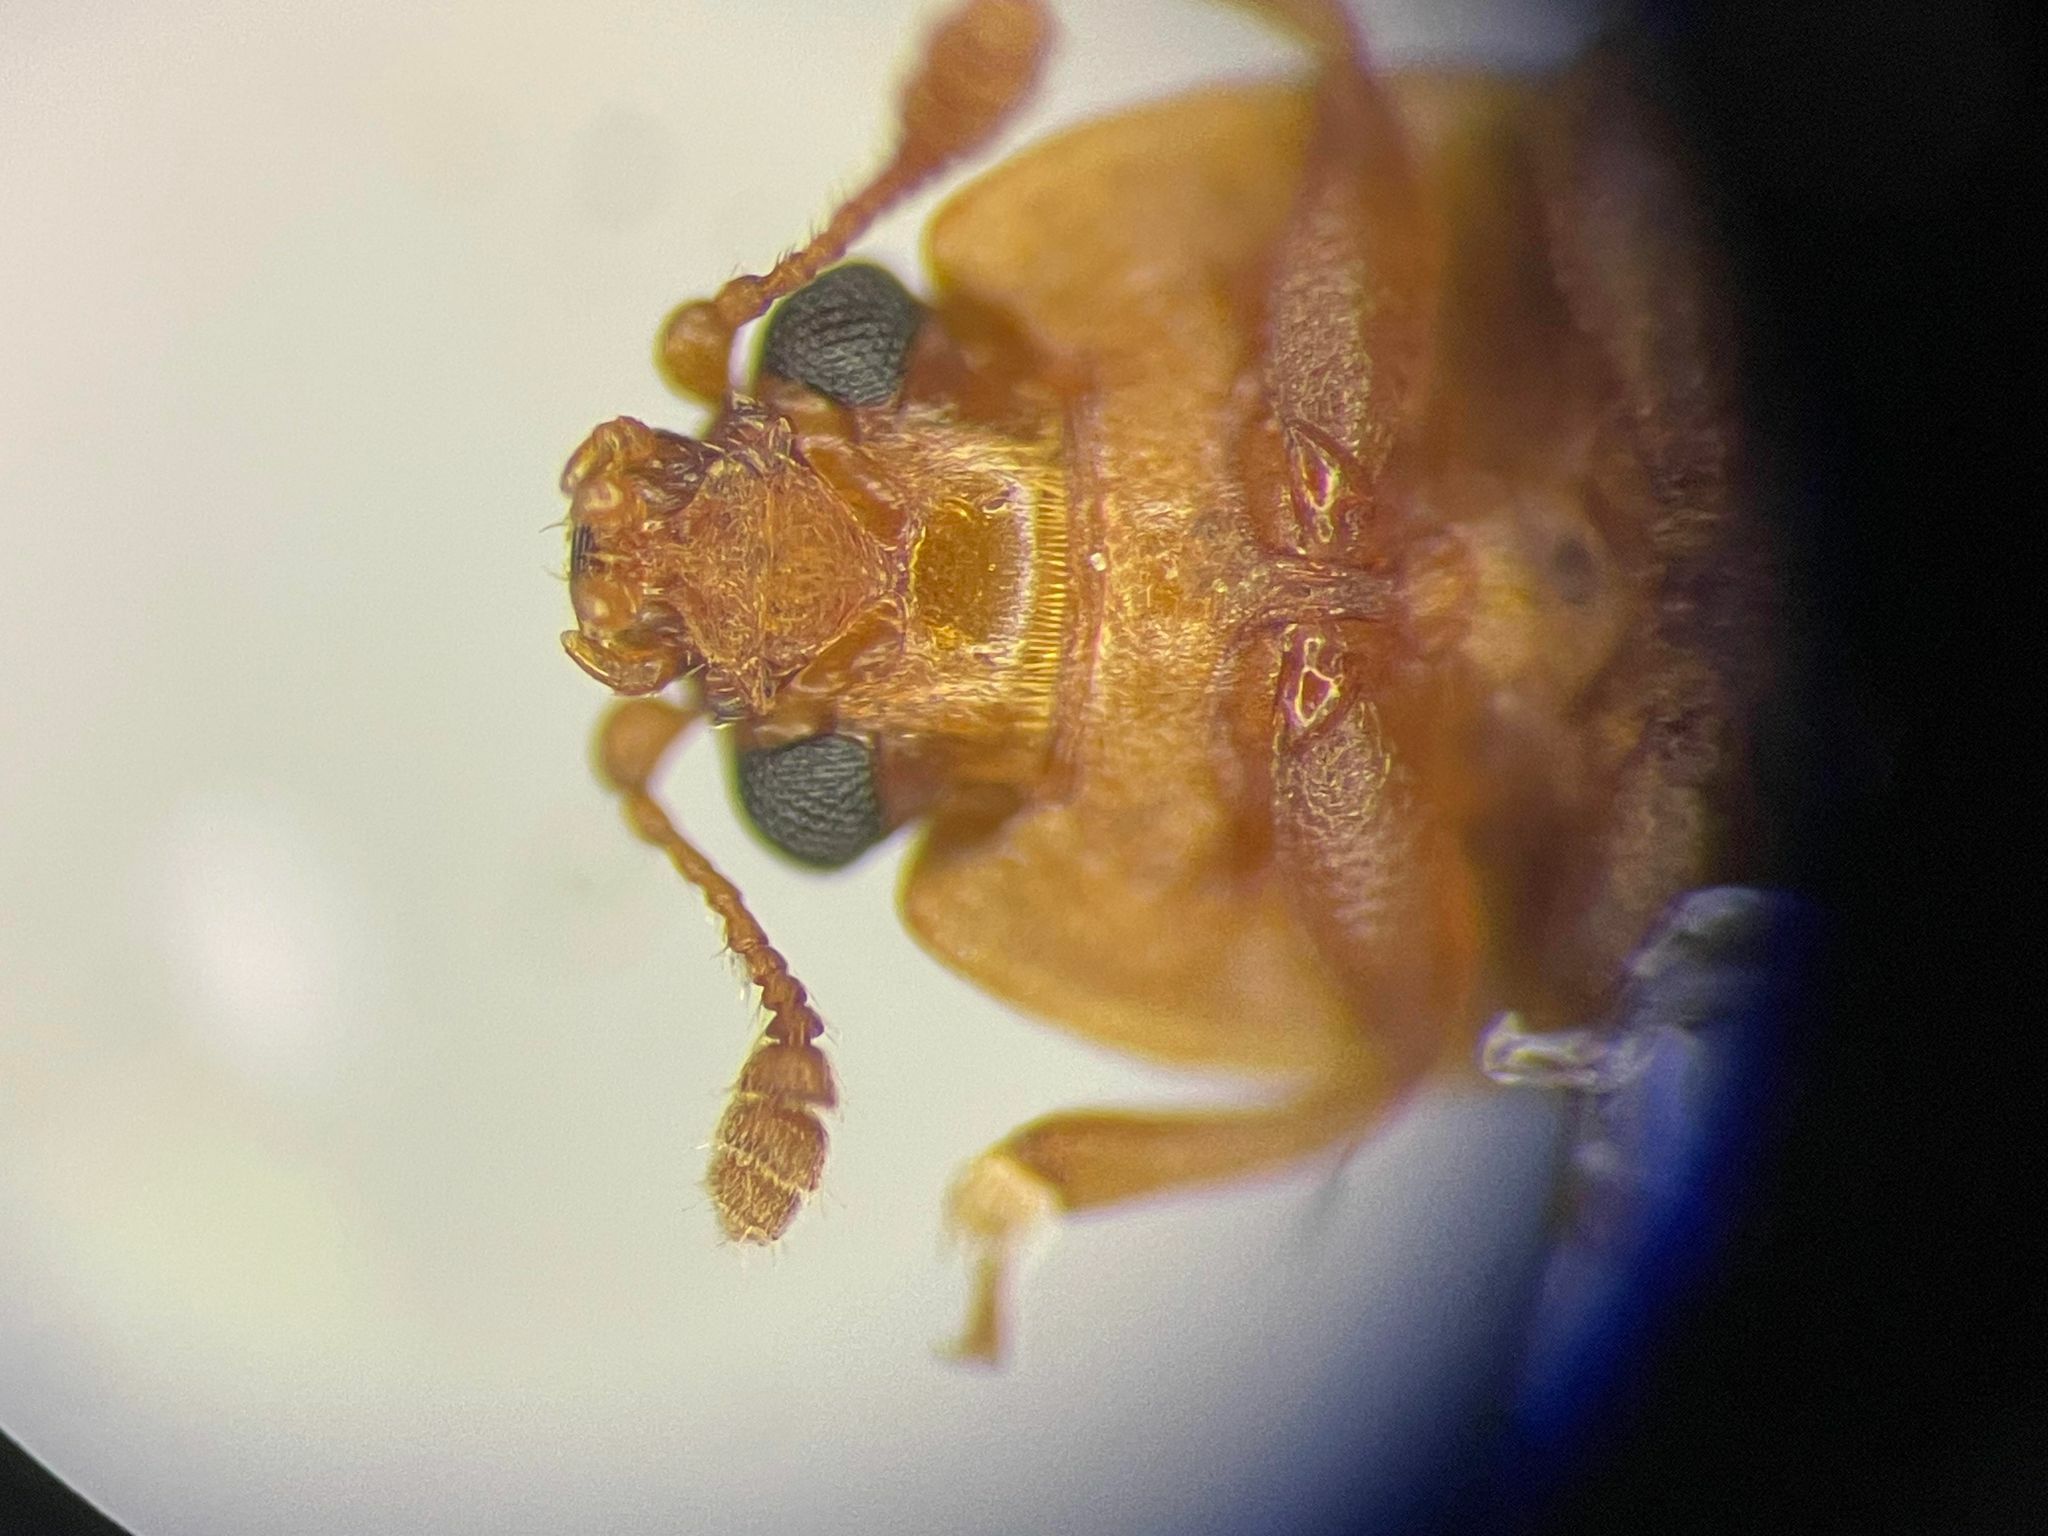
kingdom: Animalia
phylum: Arthropoda
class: Insecta
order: Coleoptera
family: Nitidulidae
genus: Epuraea
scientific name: Epuraea umbrosa
